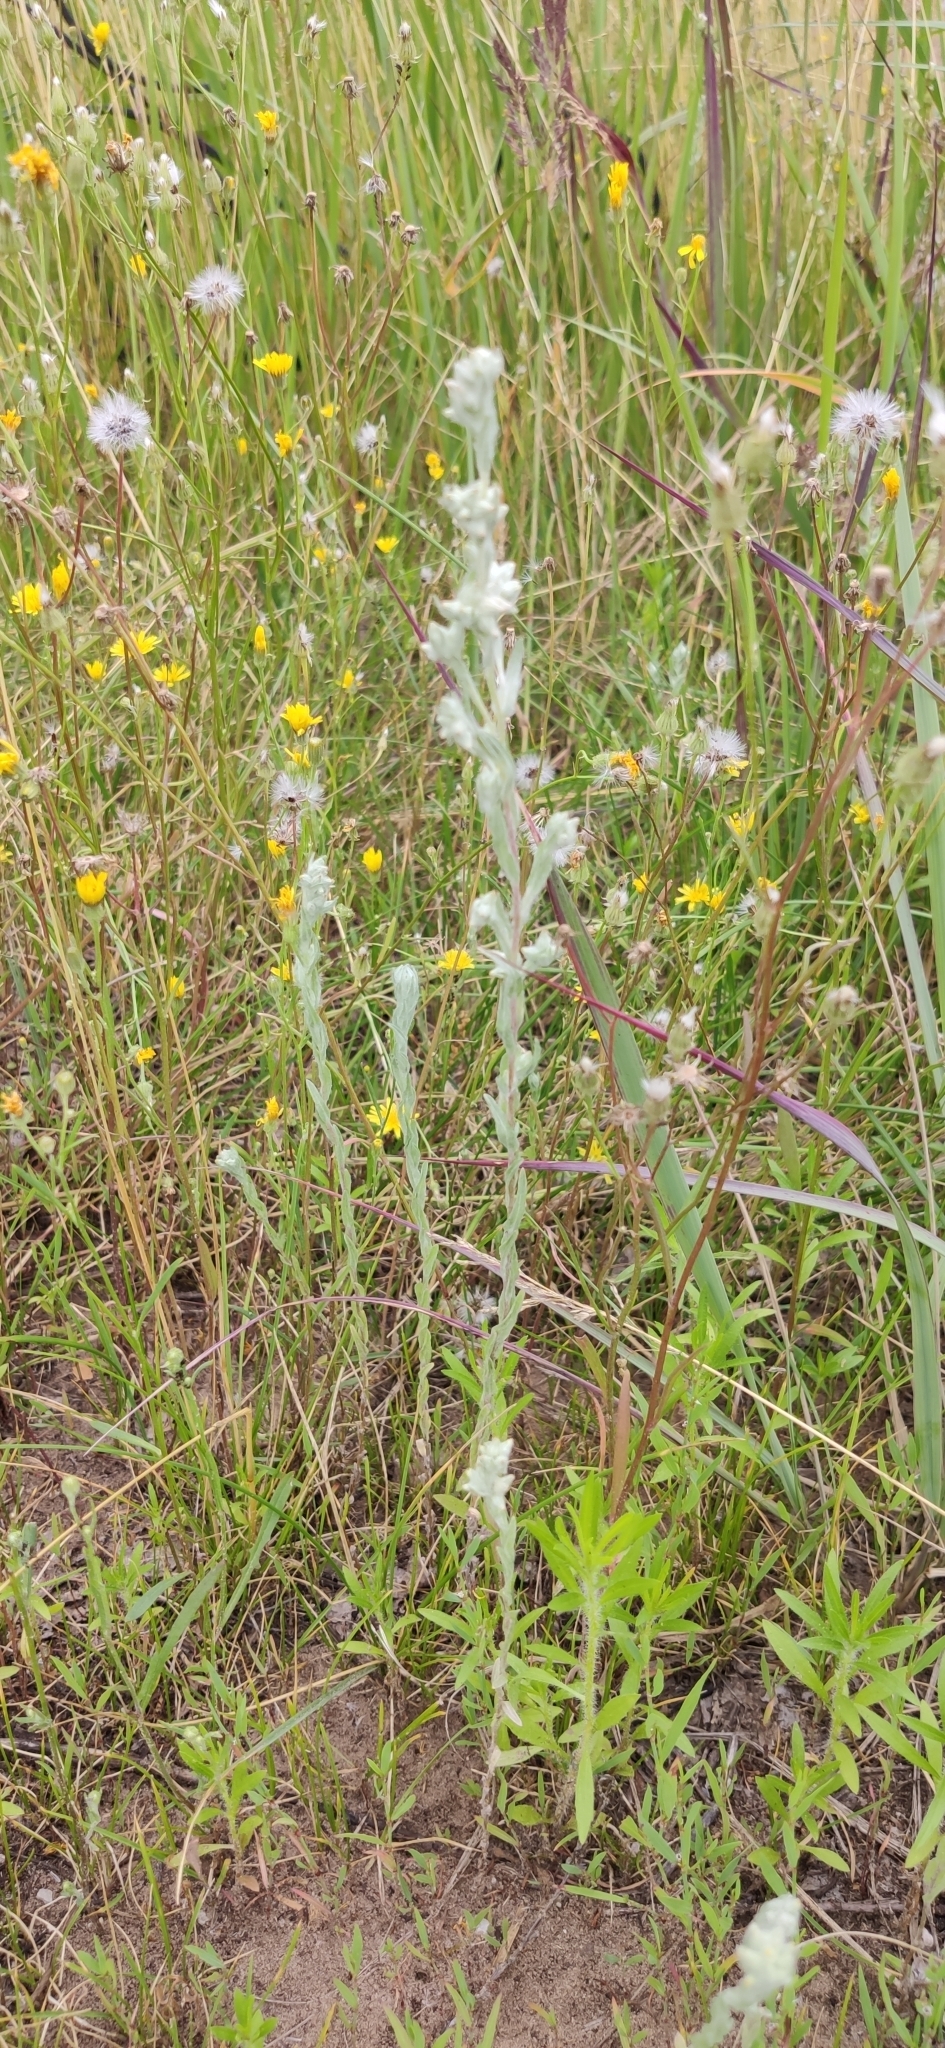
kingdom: Plantae
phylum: Tracheophyta
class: Magnoliopsida
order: Asterales
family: Asteraceae
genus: Filago
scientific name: Filago arvensis
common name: Field cudweed
